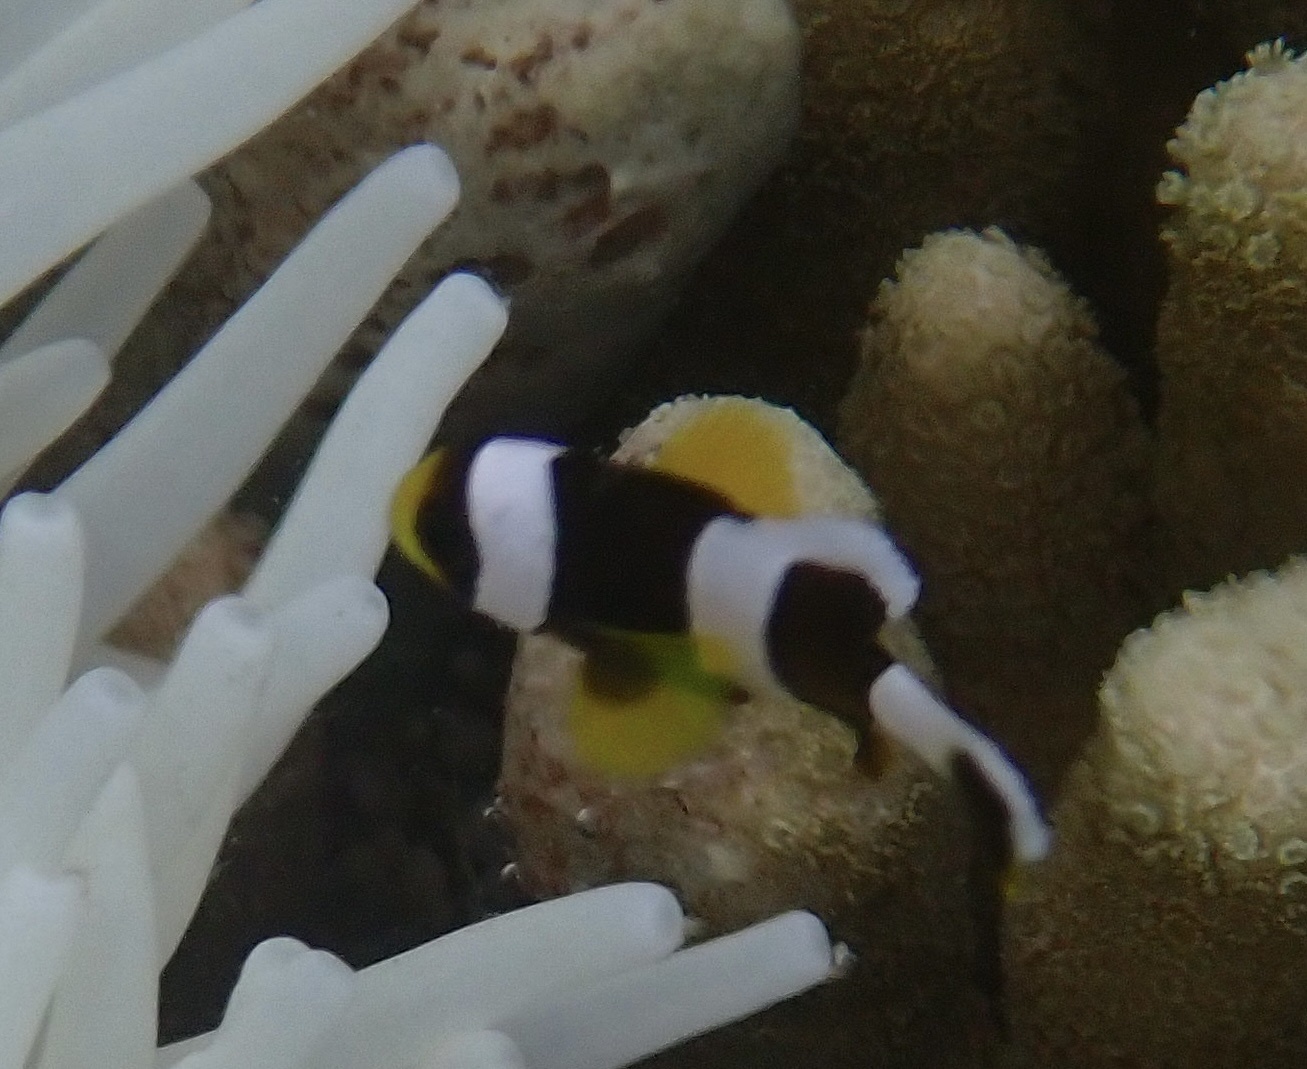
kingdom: Animalia
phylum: Chordata
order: Perciformes
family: Pomacentridae
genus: Amphiprion
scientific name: Amphiprion clarkii
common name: Clark's anemonefish
